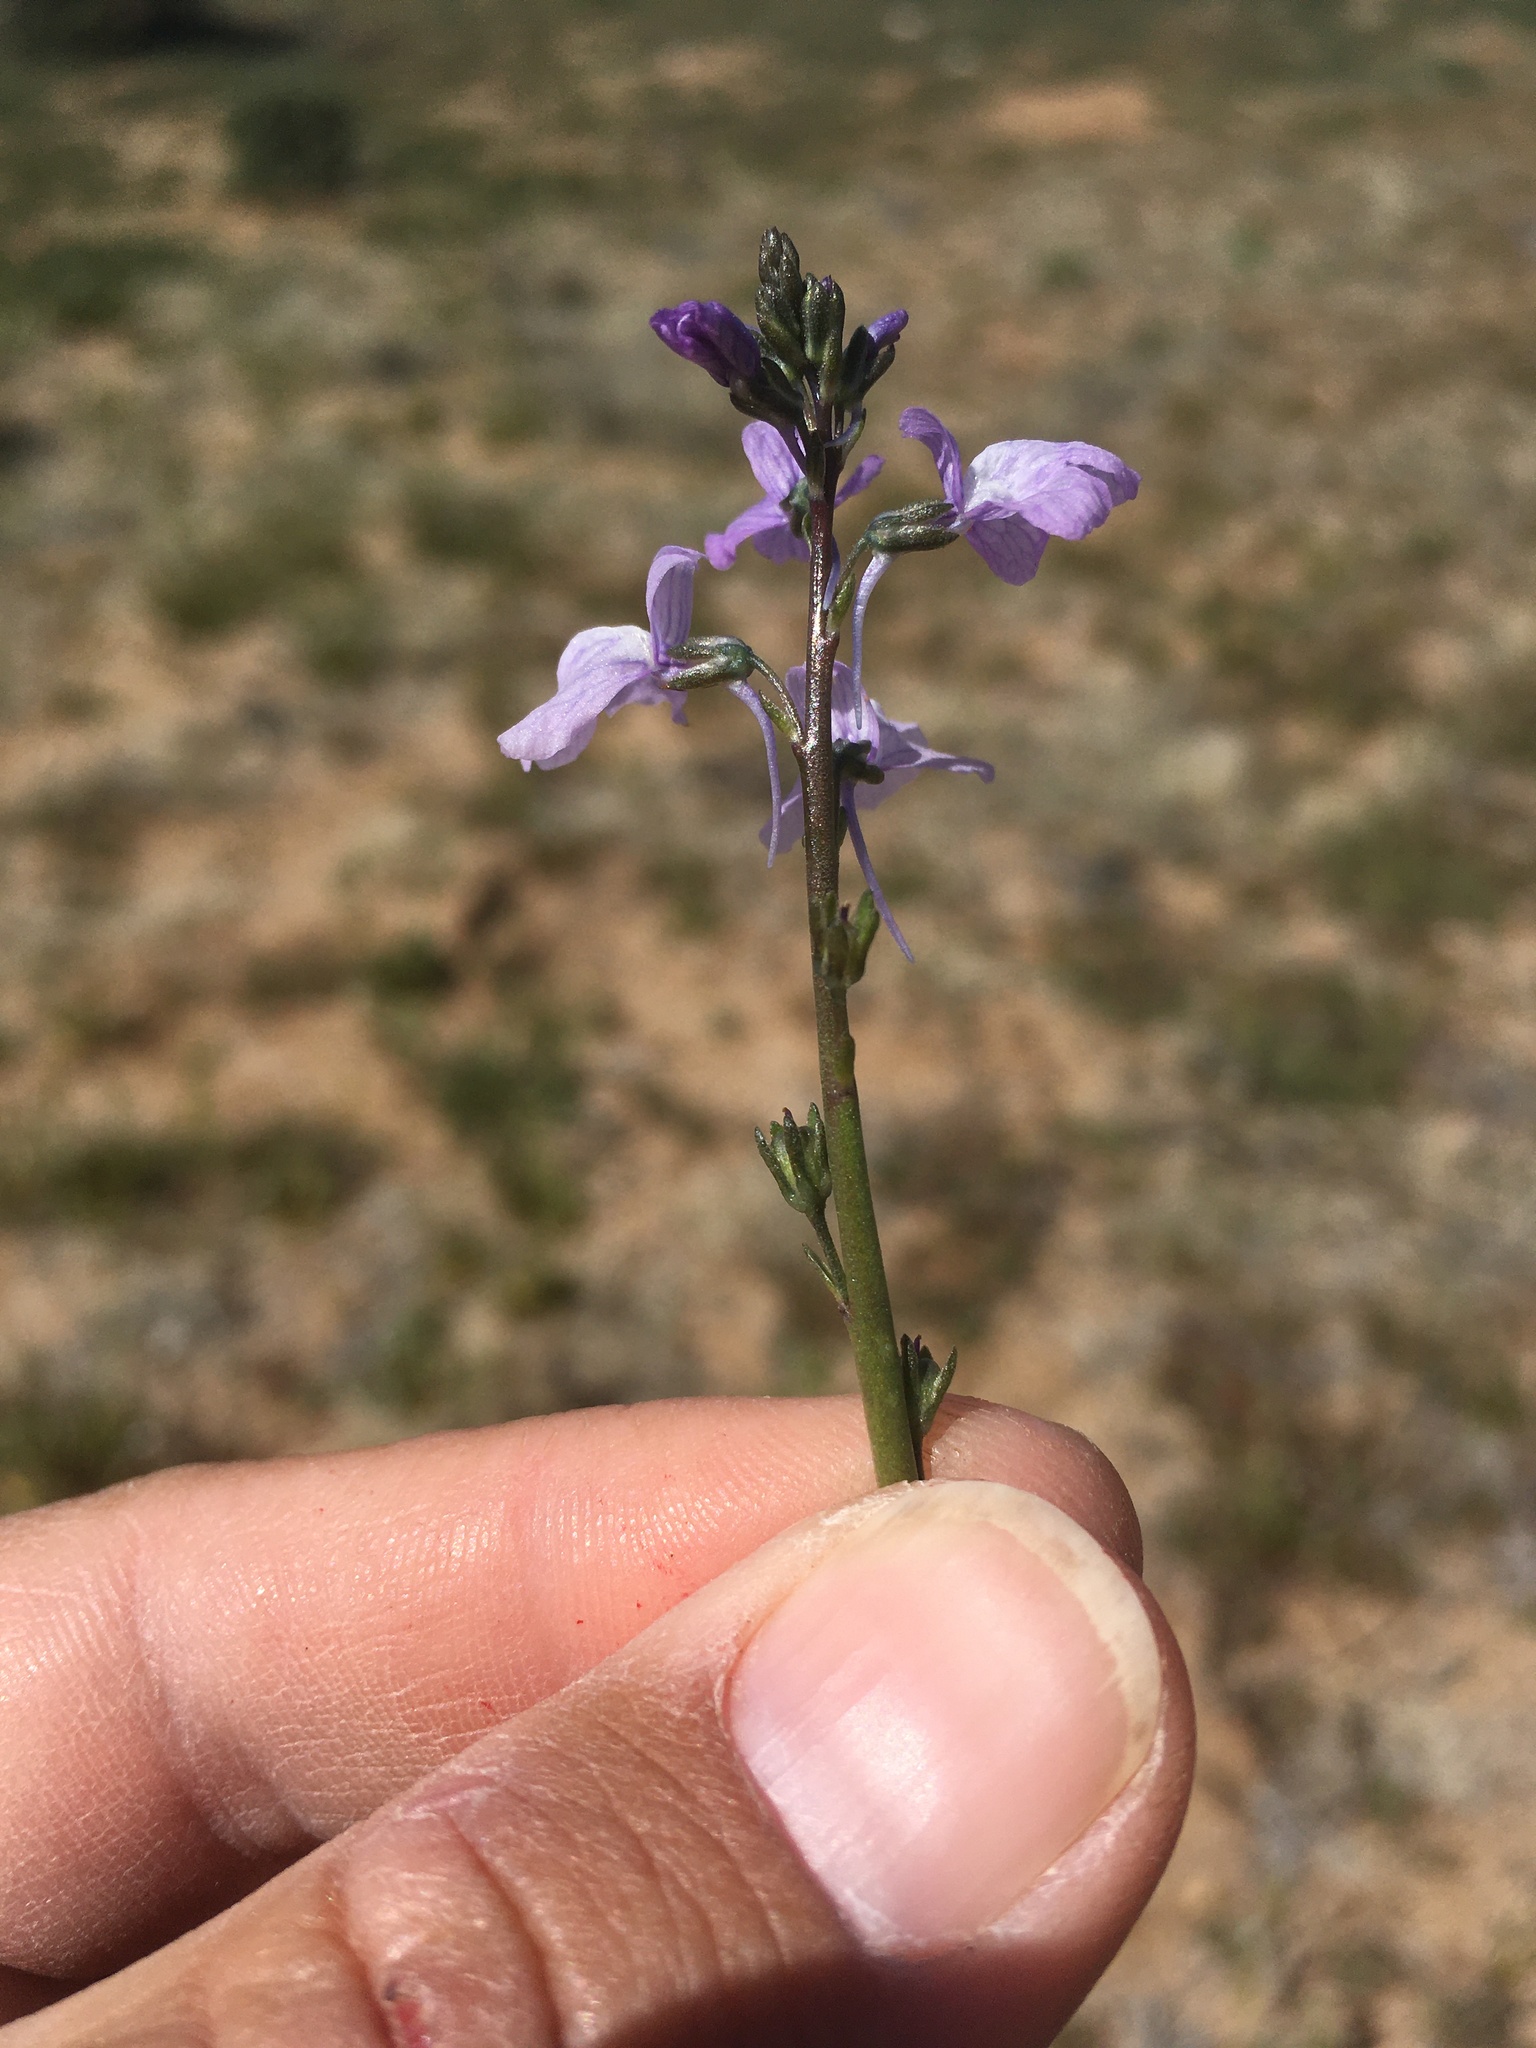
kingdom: Plantae
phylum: Tracheophyta
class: Magnoliopsida
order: Lamiales
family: Plantaginaceae
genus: Nuttallanthus
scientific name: Nuttallanthus texanus
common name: Texas toadflax
